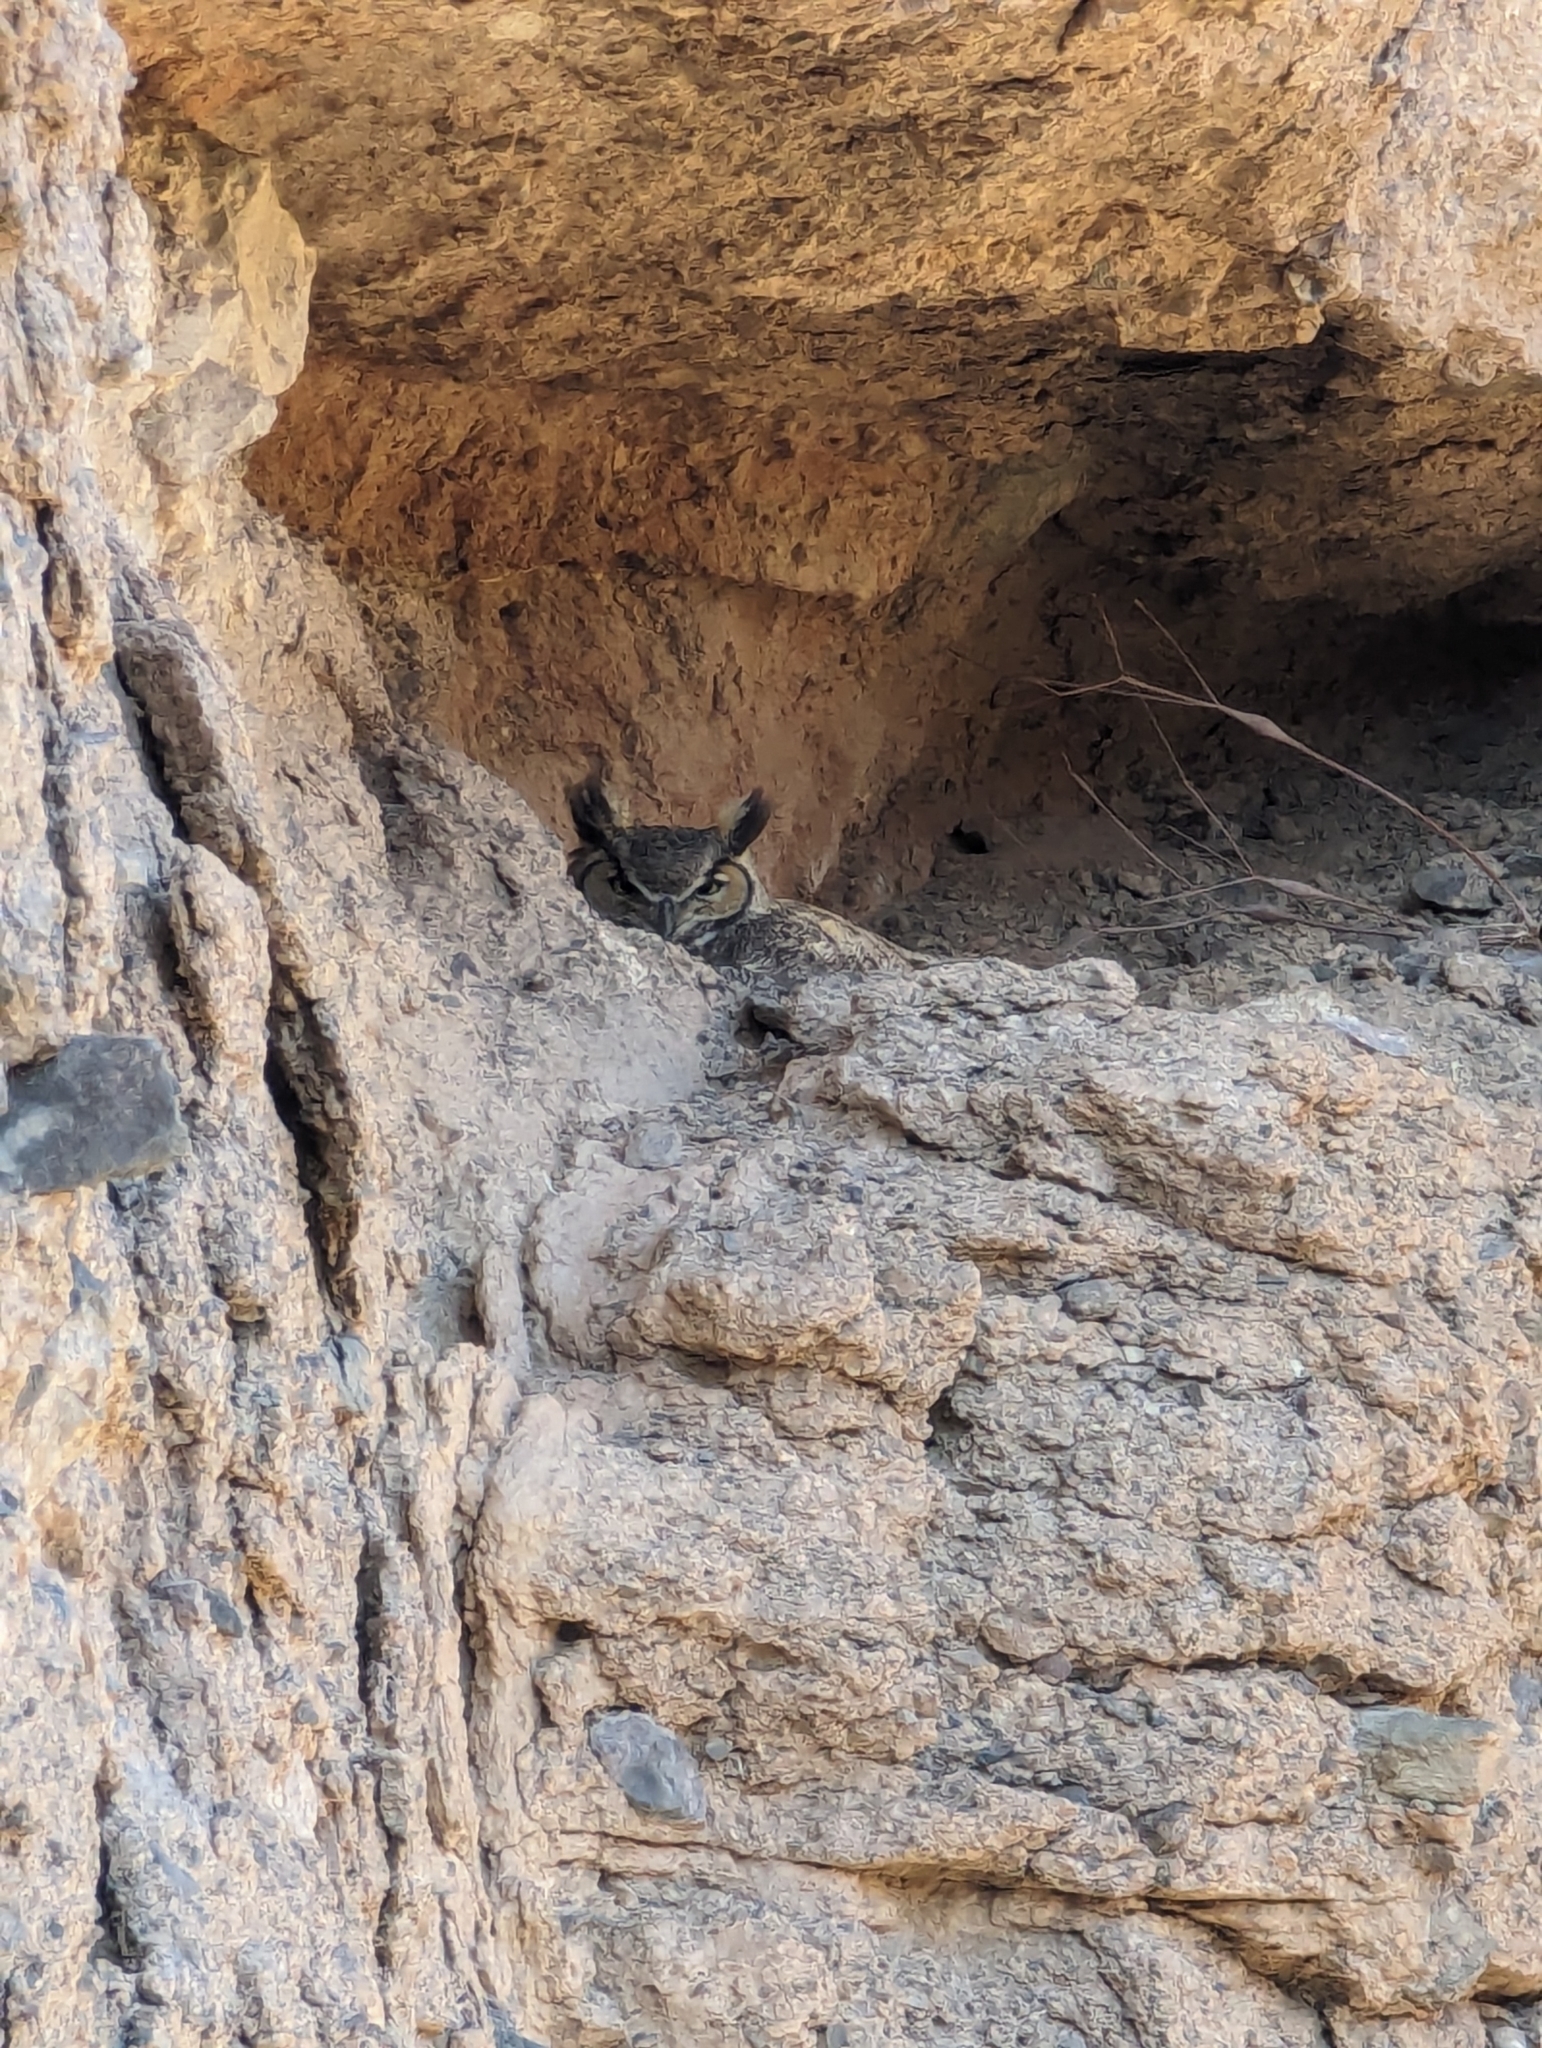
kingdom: Animalia
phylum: Chordata
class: Aves
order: Strigiformes
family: Strigidae
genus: Bubo
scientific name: Bubo virginianus
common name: Great horned owl
